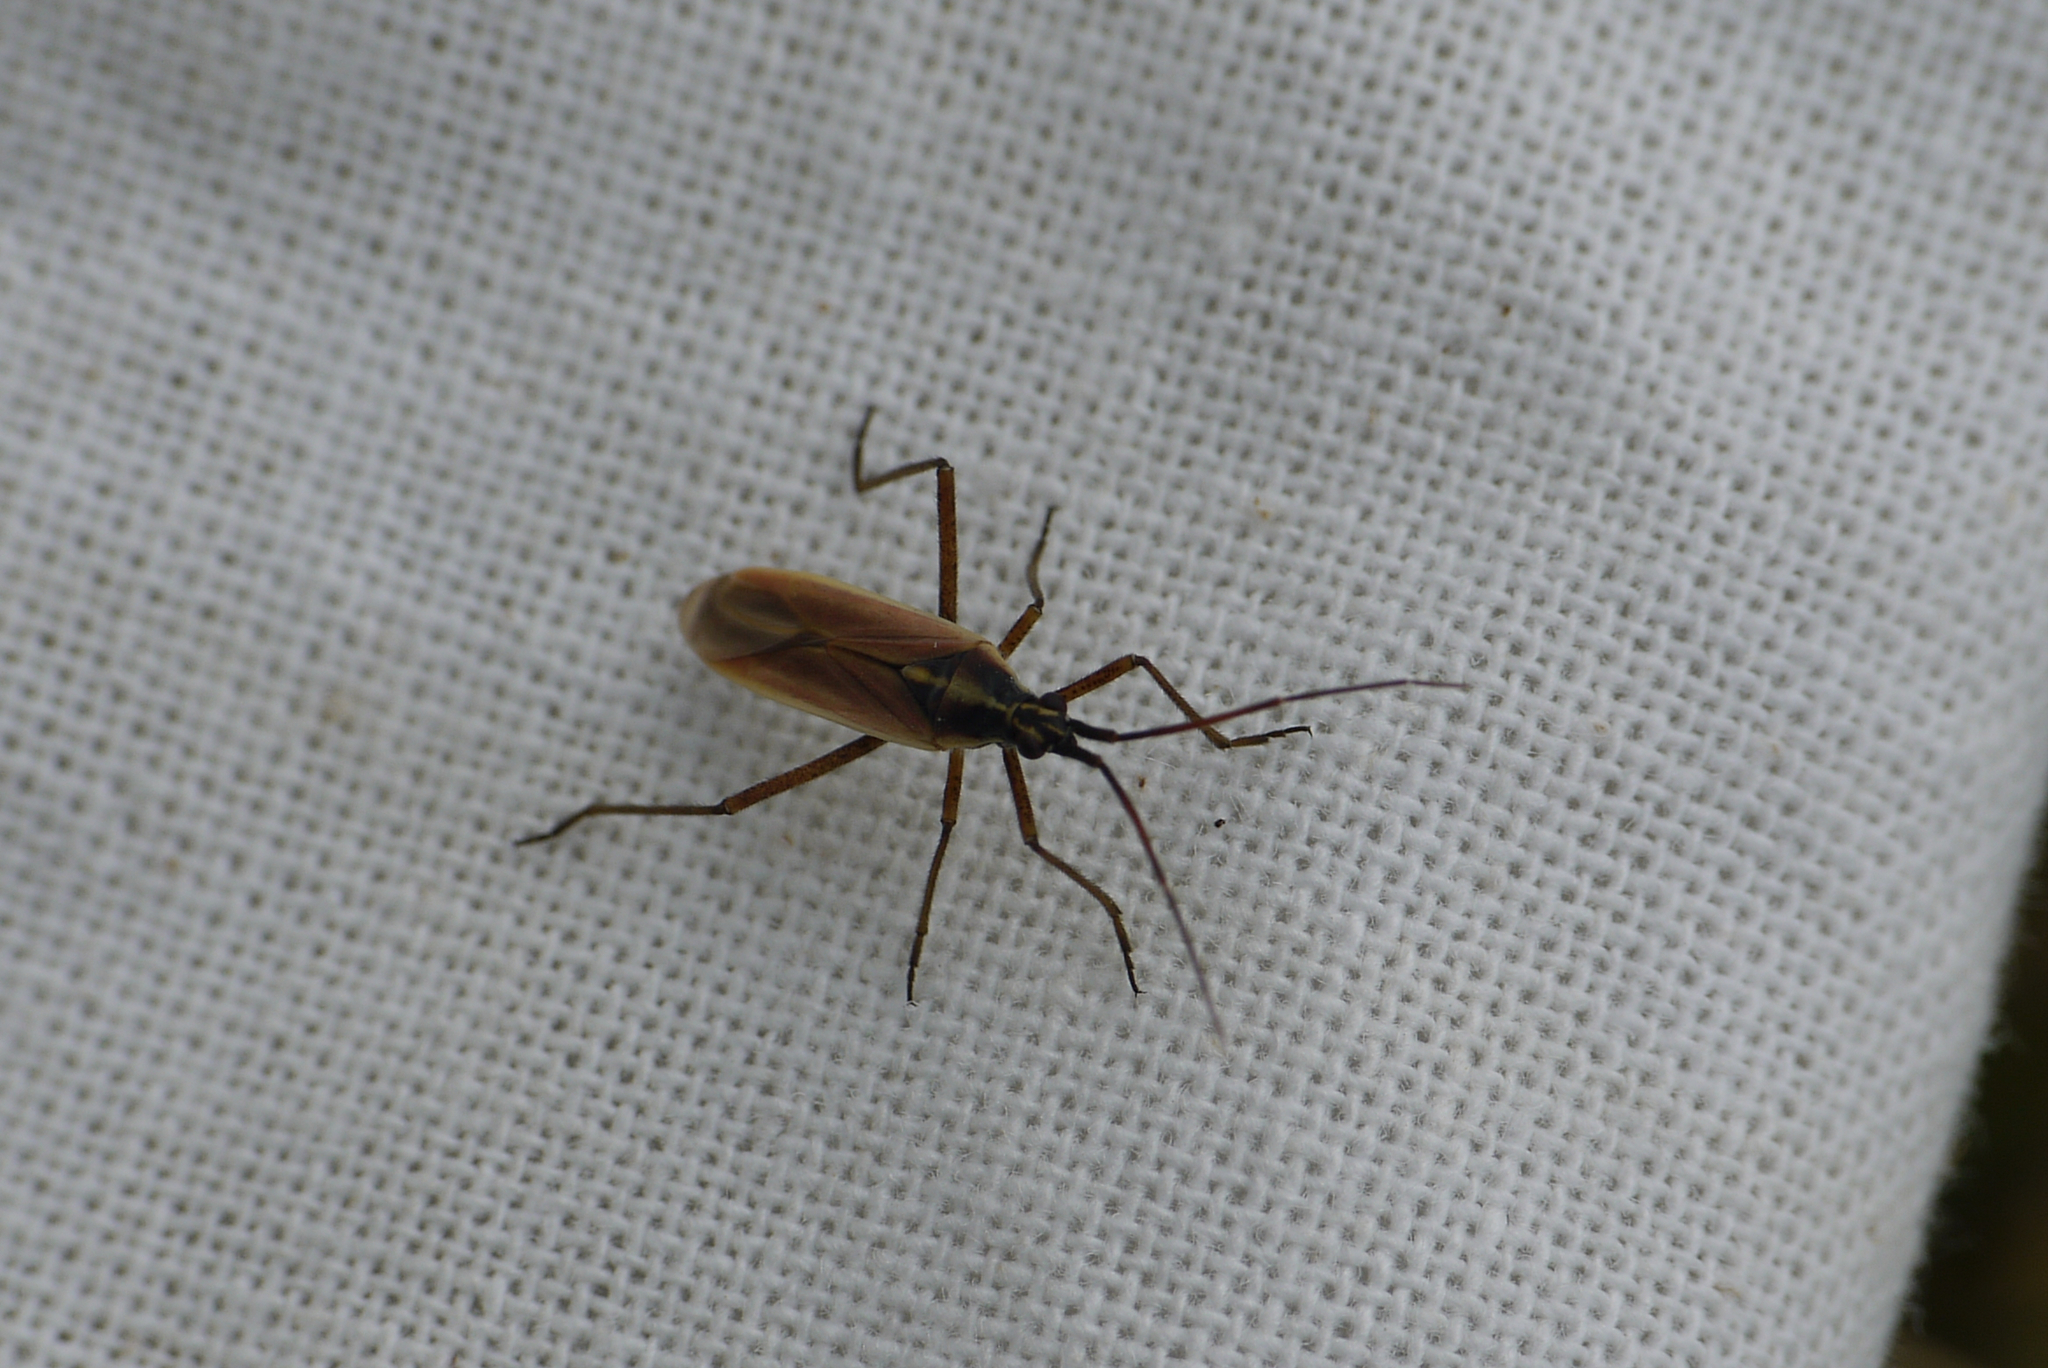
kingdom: Animalia
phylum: Arthropoda
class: Insecta
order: Hemiptera
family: Miridae
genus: Leptopterna
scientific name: Leptopterna ferrugata
